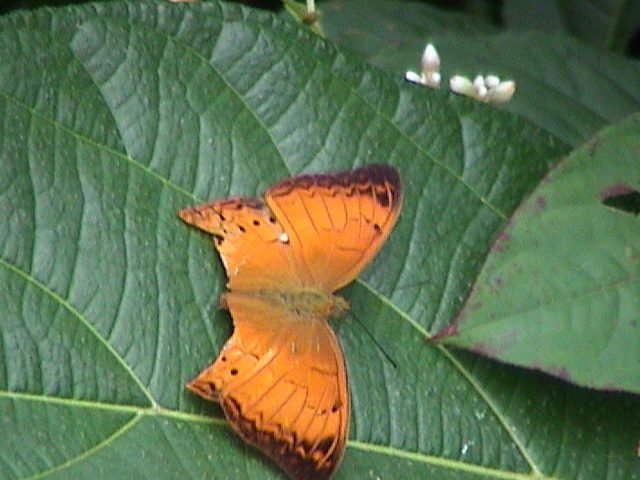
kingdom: Animalia
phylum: Arthropoda
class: Insecta
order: Lepidoptera
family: Nymphalidae
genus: Cirrochroa
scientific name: Cirrochroa thais
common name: Tamil yeoman
